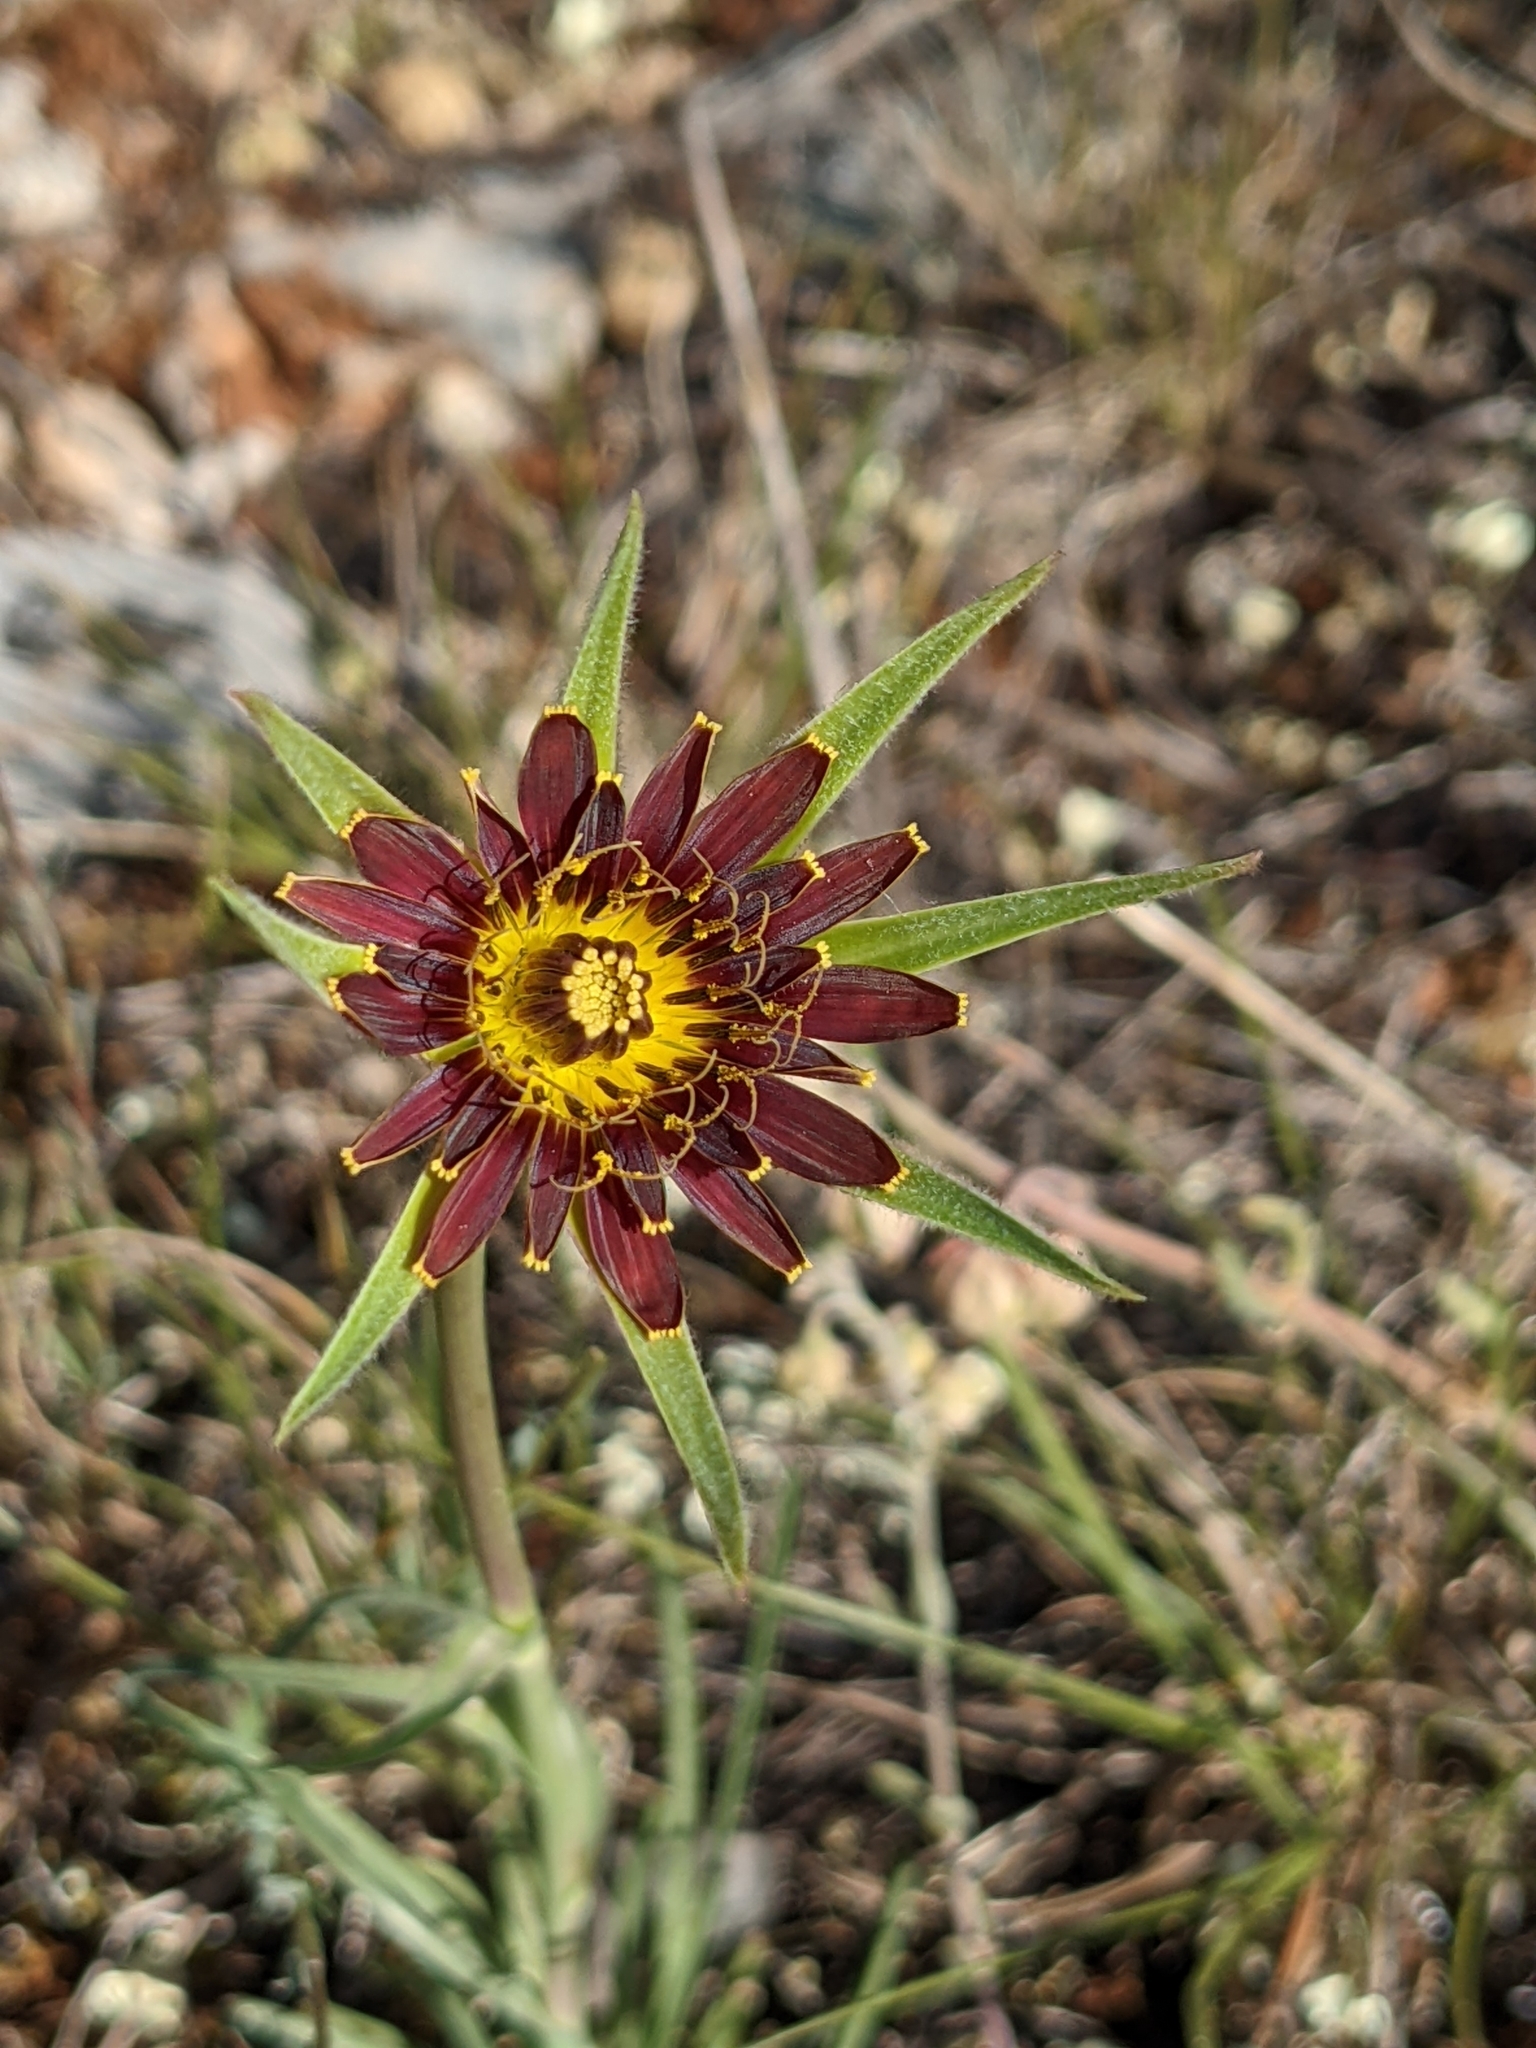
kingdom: Plantae
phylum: Tracheophyta
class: Magnoliopsida
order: Asterales
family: Asteraceae
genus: Tragopogon
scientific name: Tragopogon crocifolius
